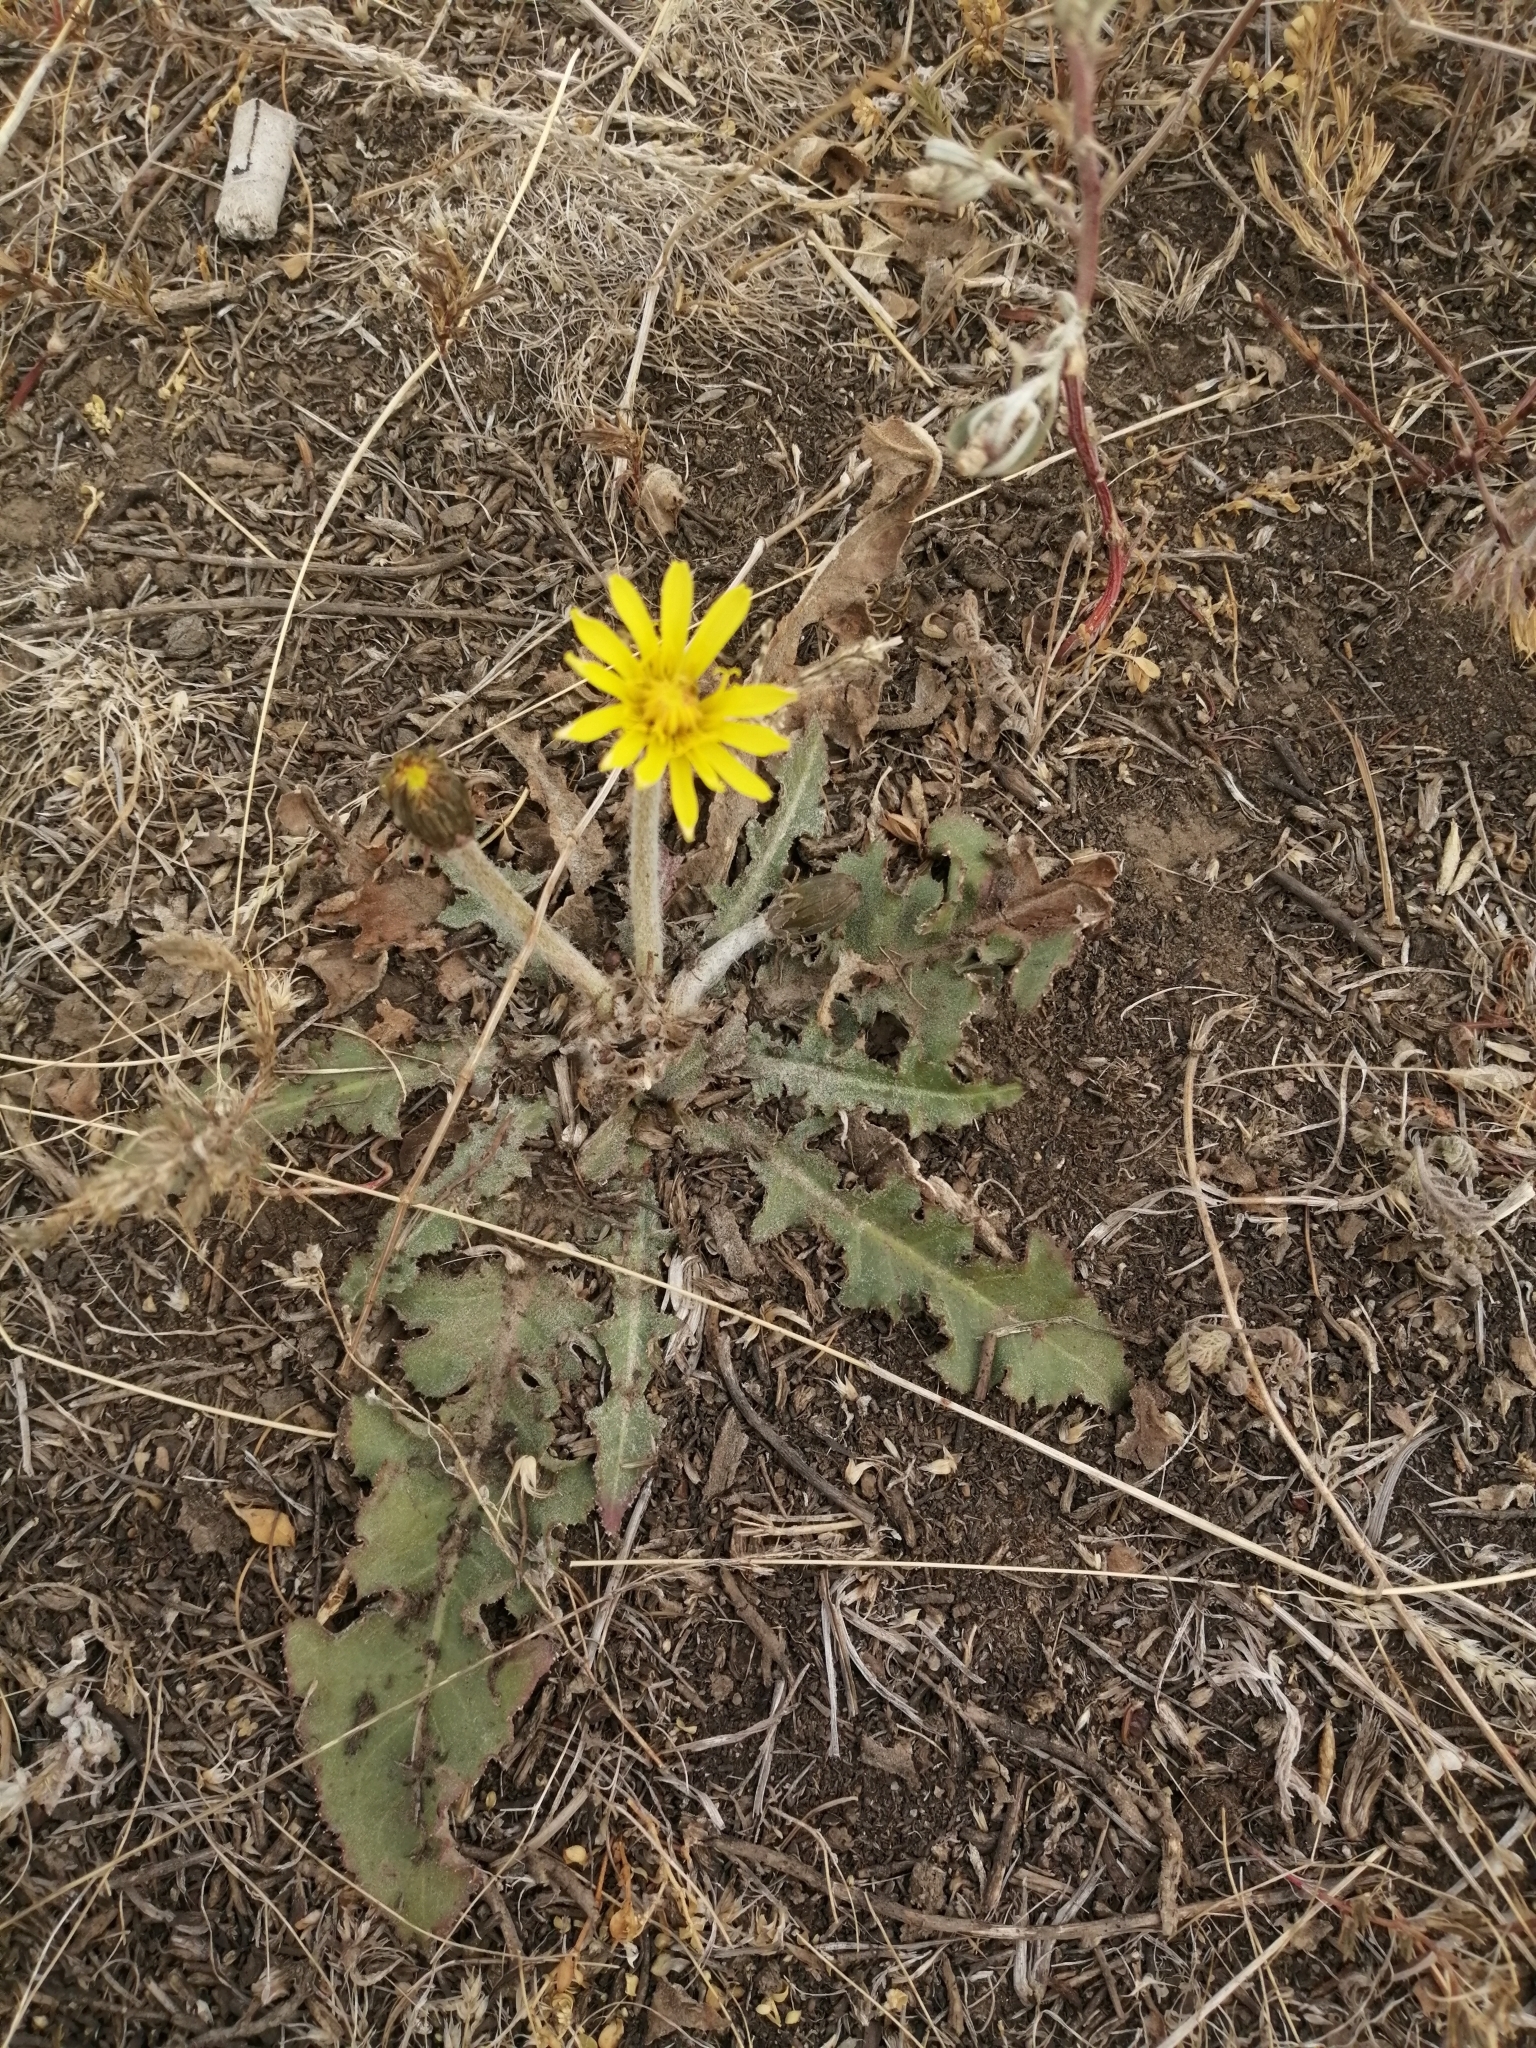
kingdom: Plantae
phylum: Tracheophyta
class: Magnoliopsida
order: Asterales
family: Asteraceae
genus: Taraxacum
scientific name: Taraxacum serotinum
